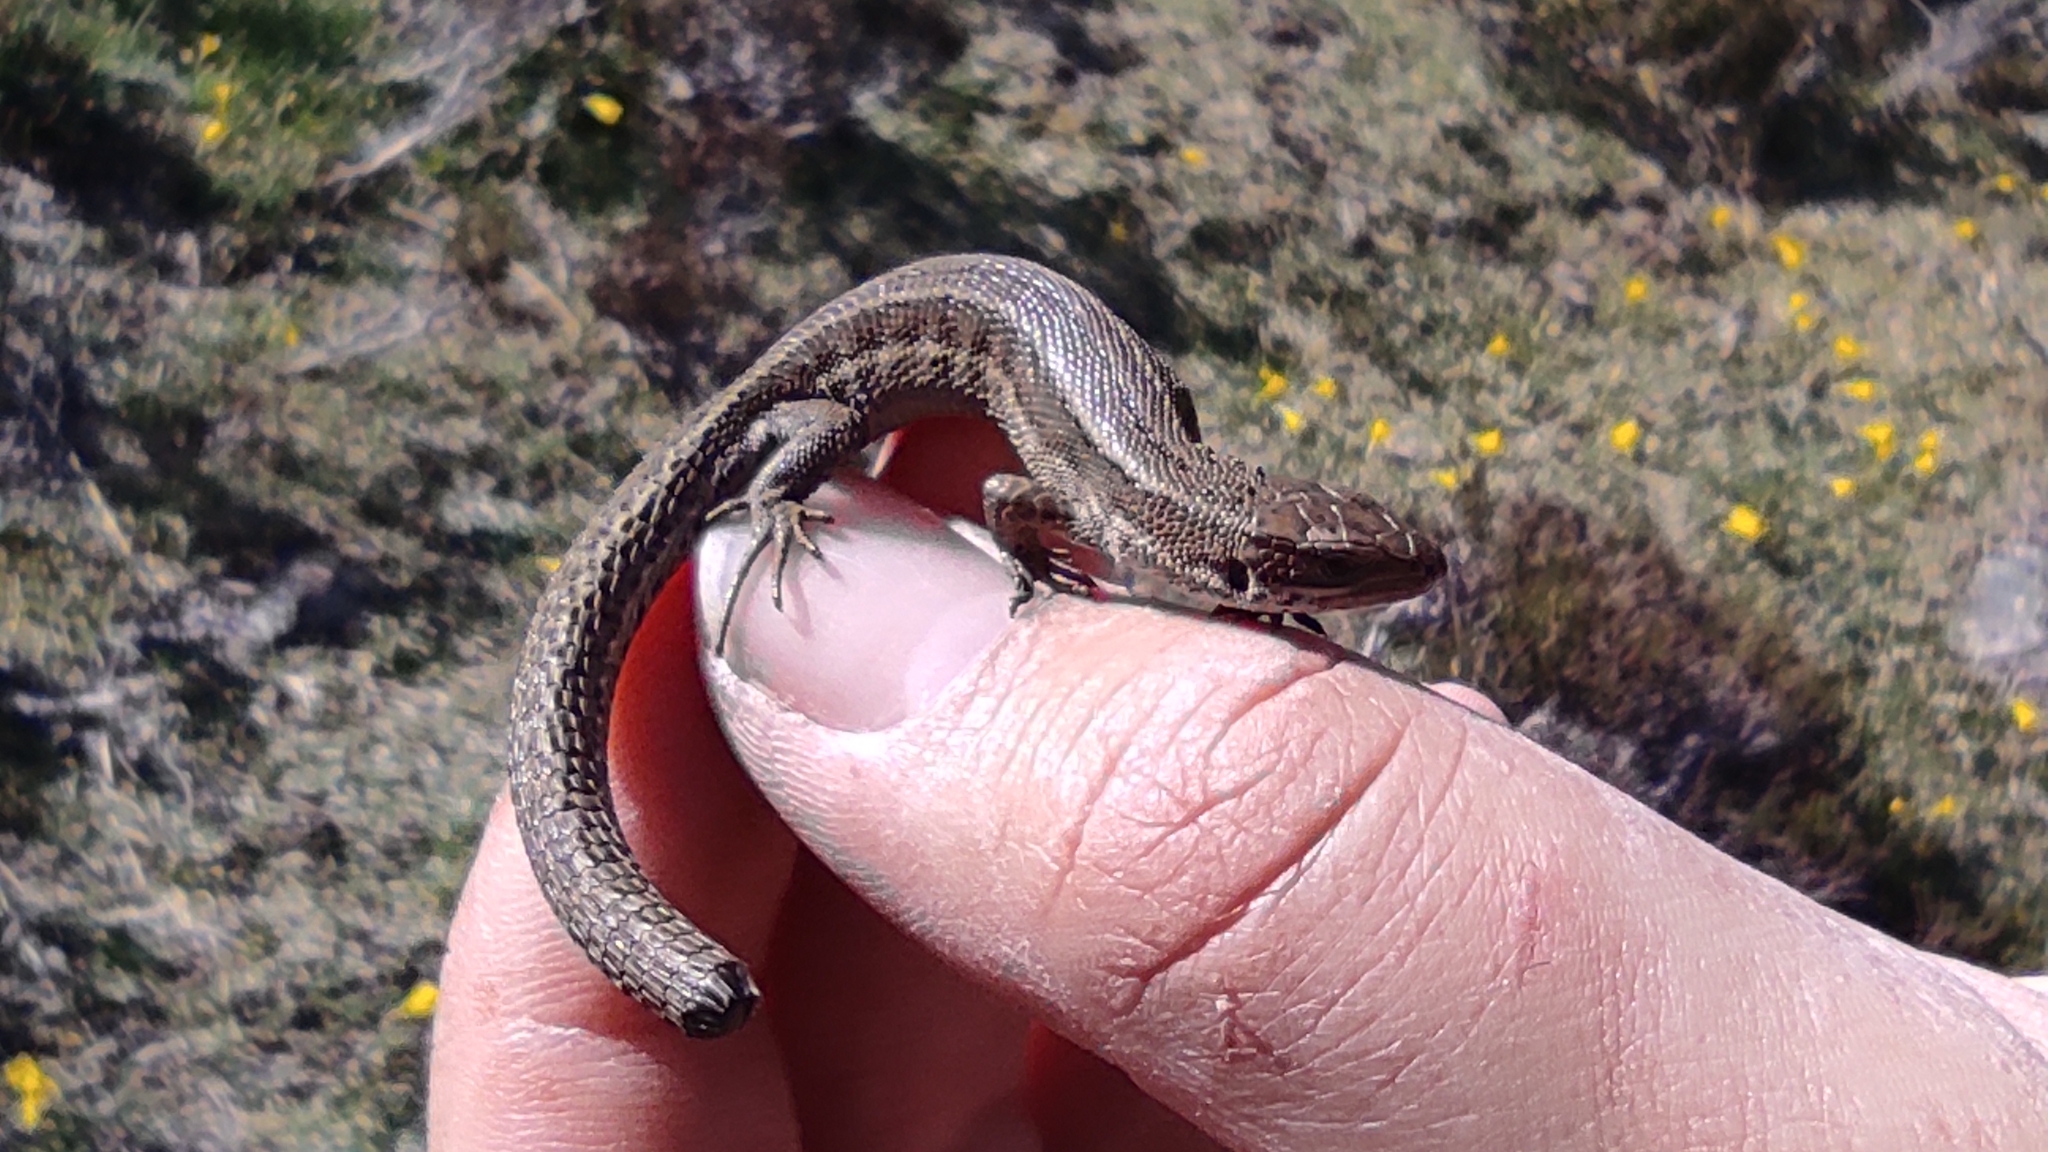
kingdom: Animalia
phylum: Chordata
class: Squamata
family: Lacertidae
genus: Zootoca
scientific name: Zootoca vivipara
